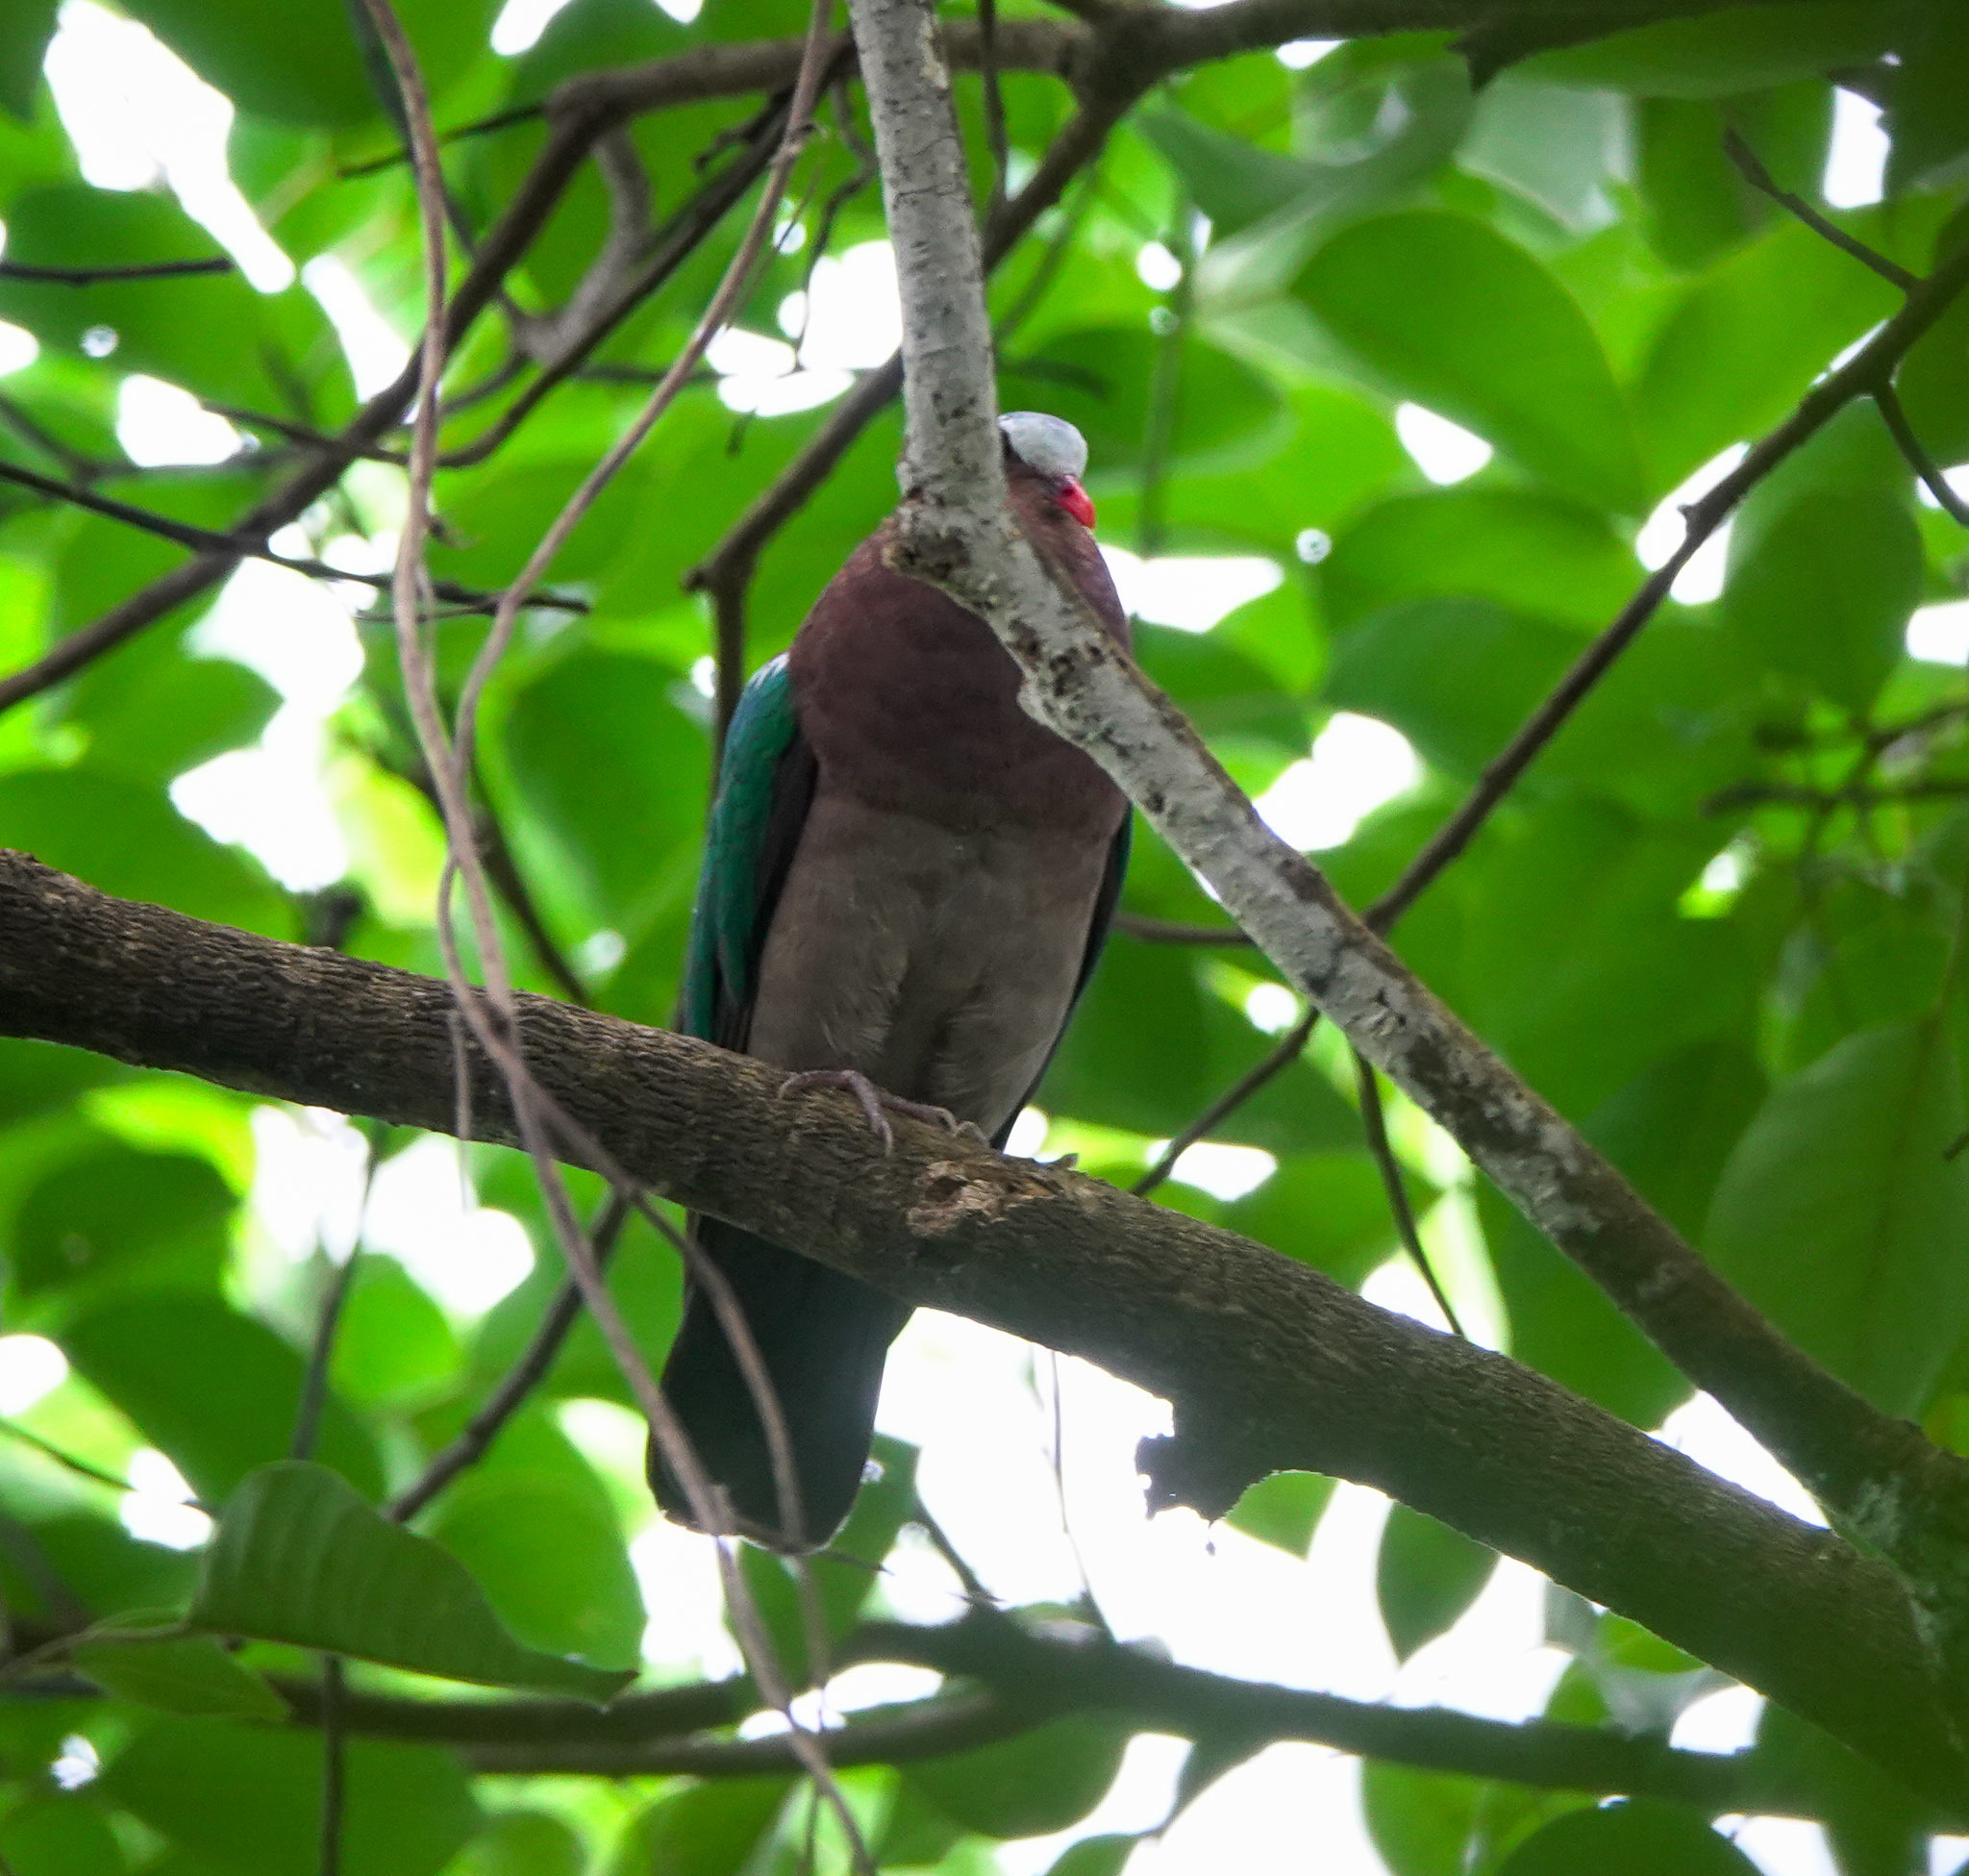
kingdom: Animalia
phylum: Chordata
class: Aves
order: Columbiformes
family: Columbidae
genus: Chalcophaps
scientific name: Chalcophaps indica
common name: Common emerald dove
